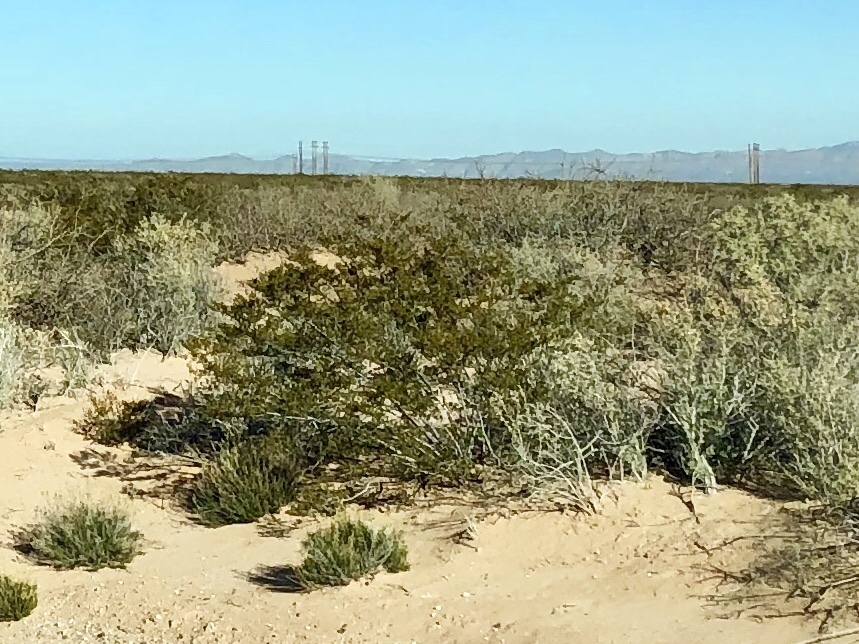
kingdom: Plantae
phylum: Tracheophyta
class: Magnoliopsida
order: Zygophyllales
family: Zygophyllaceae
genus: Larrea
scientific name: Larrea tridentata
